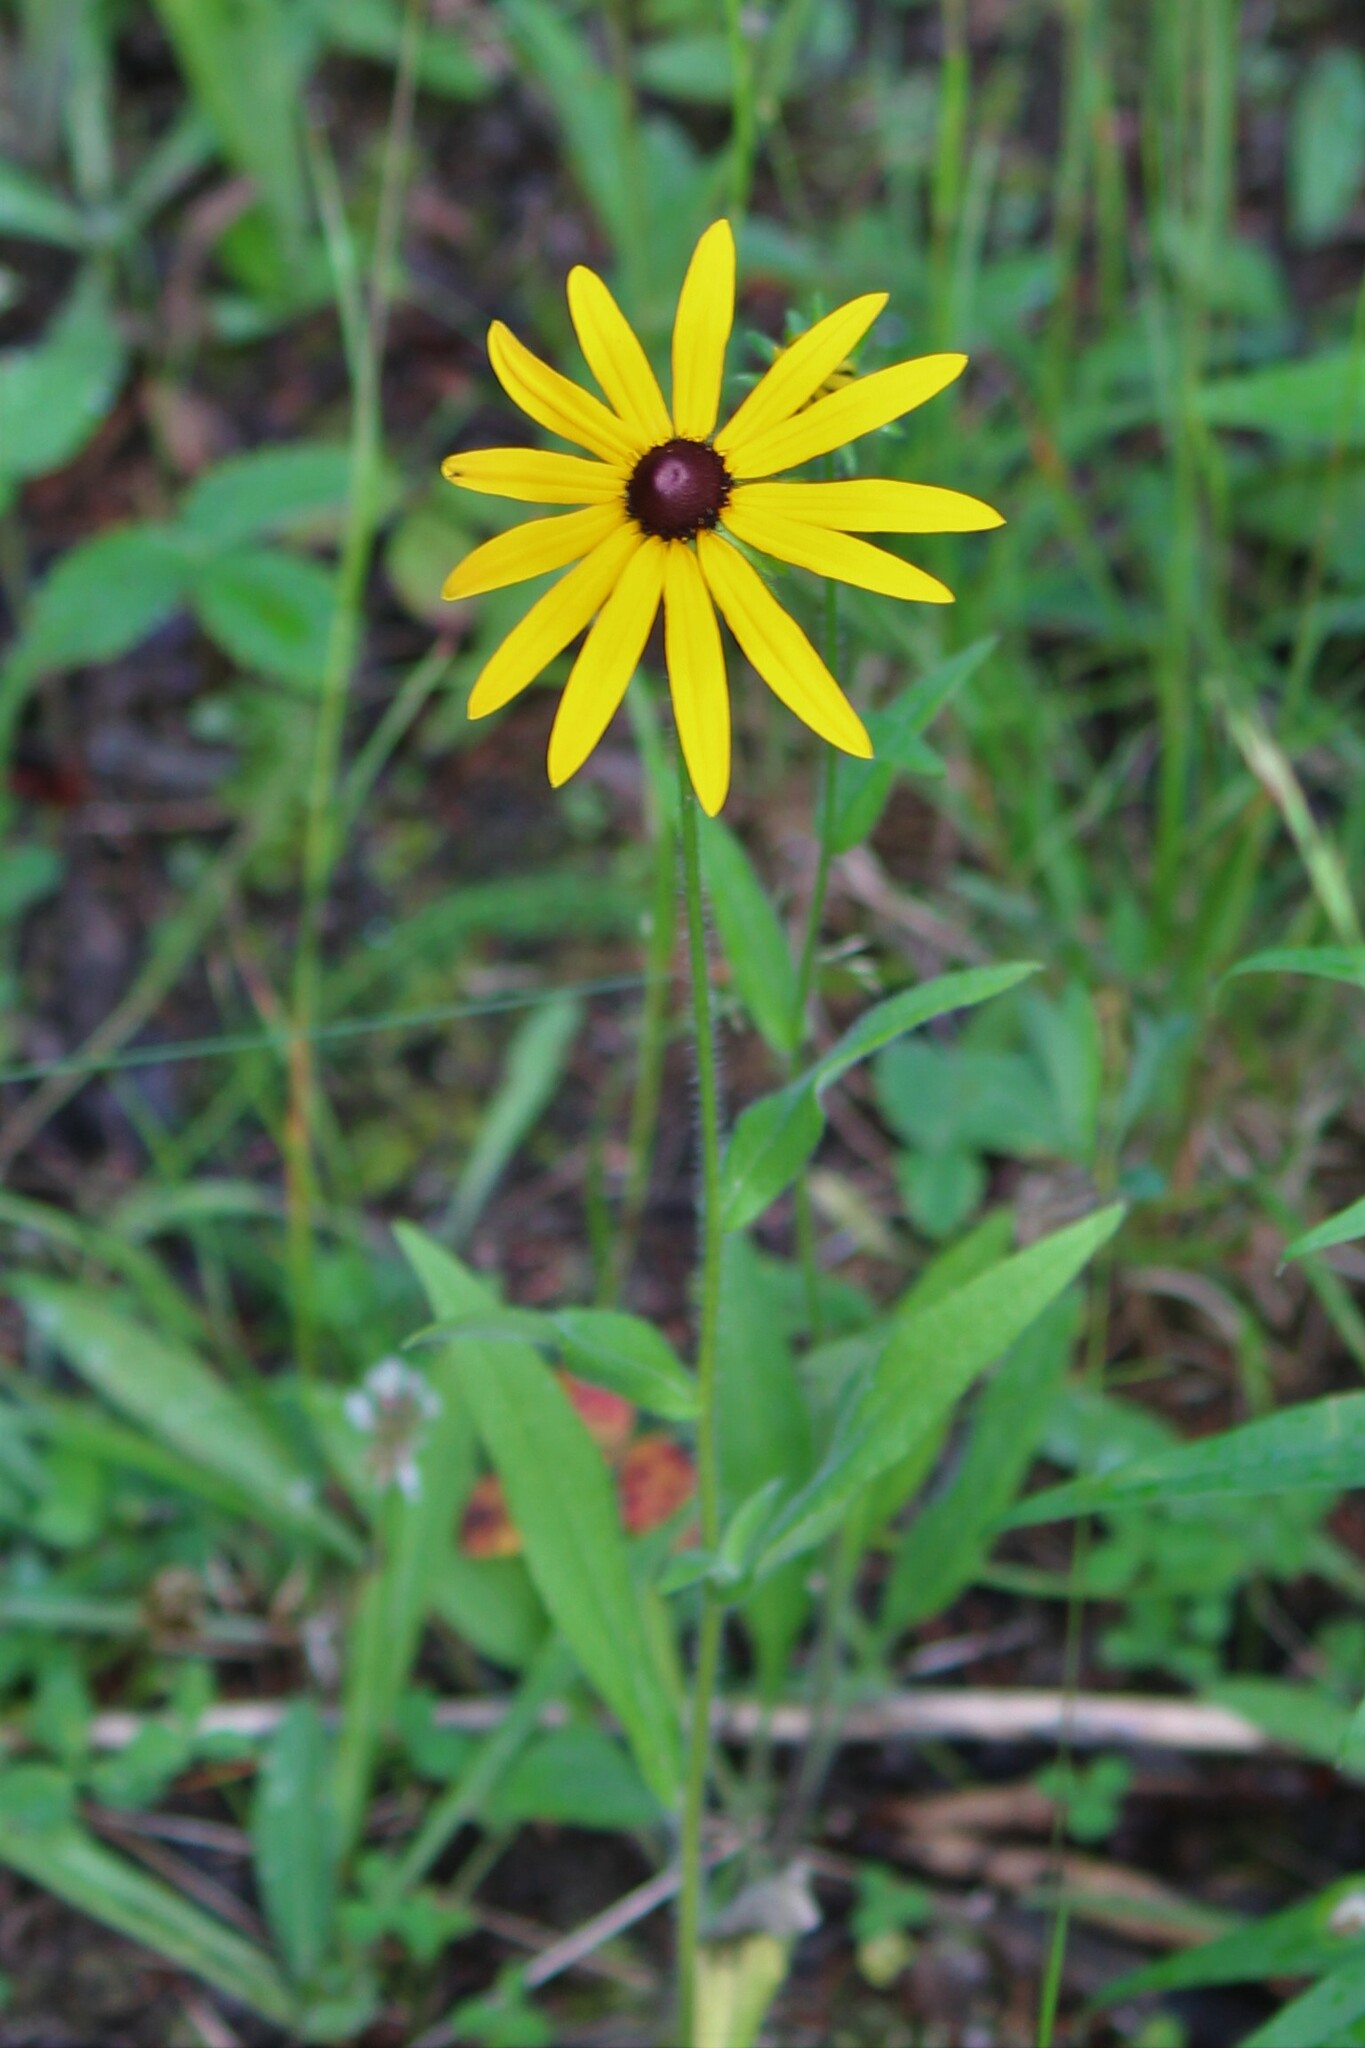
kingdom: Plantae
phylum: Tracheophyta
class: Magnoliopsida
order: Asterales
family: Asteraceae
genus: Rudbeckia
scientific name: Rudbeckia hirta
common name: Black-eyed-susan
